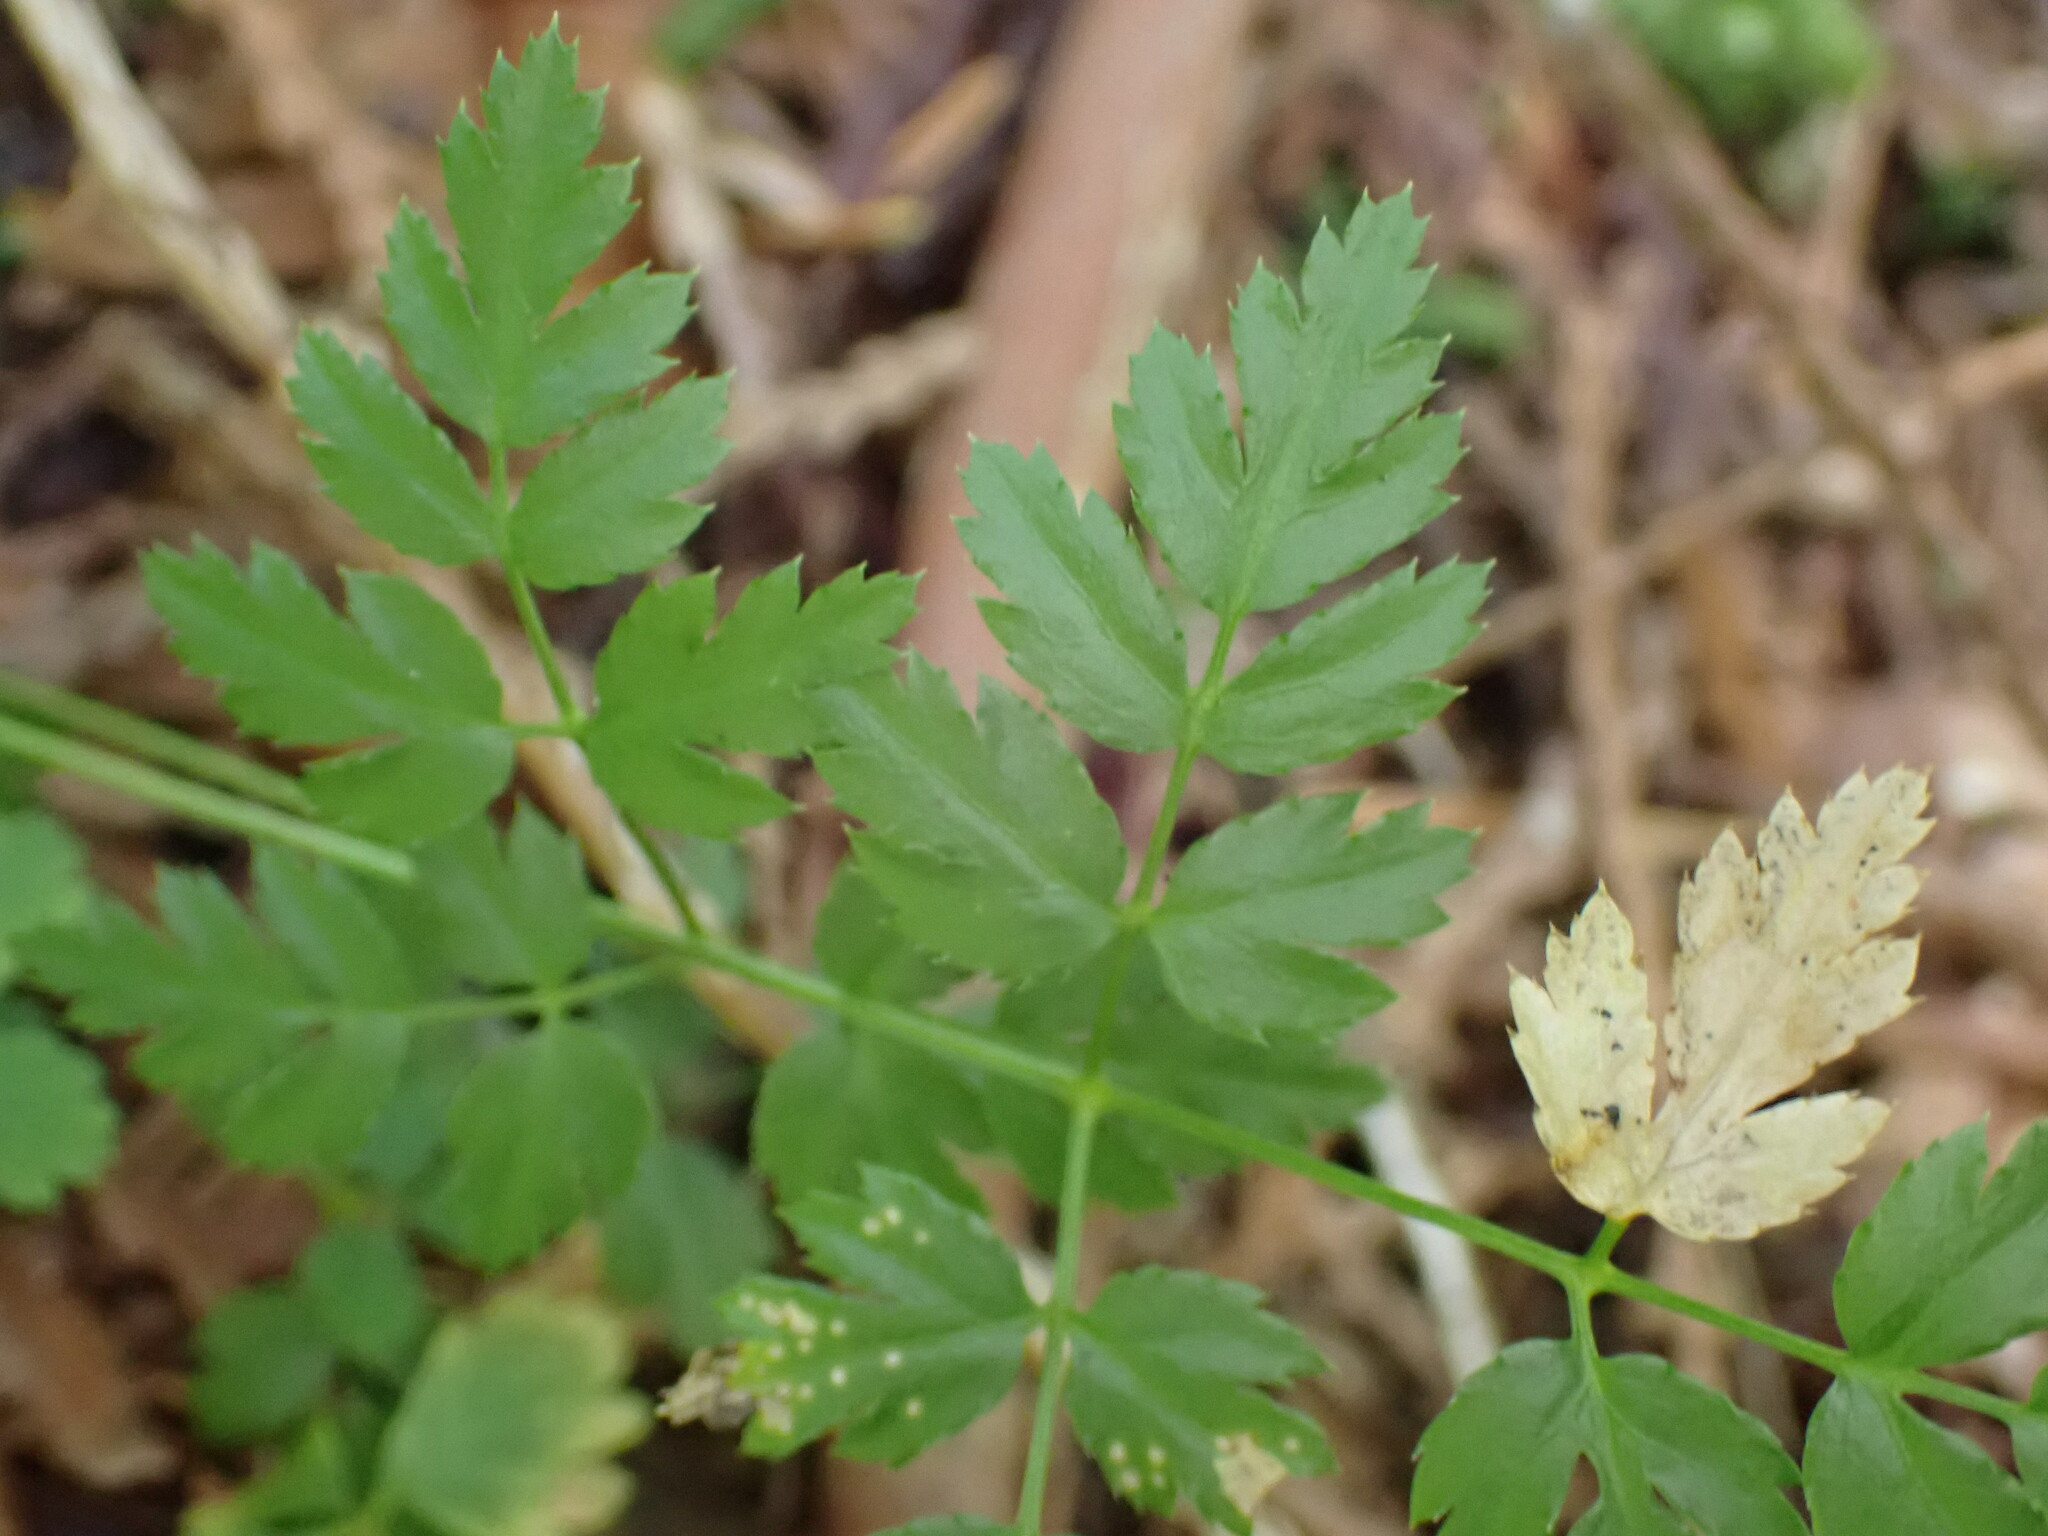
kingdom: Plantae
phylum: Tracheophyta
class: Magnoliopsida
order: Ranunculales
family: Ranunculaceae
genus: Coptis
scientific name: Coptis aspleniifolia
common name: Fern-leaved goldthread
